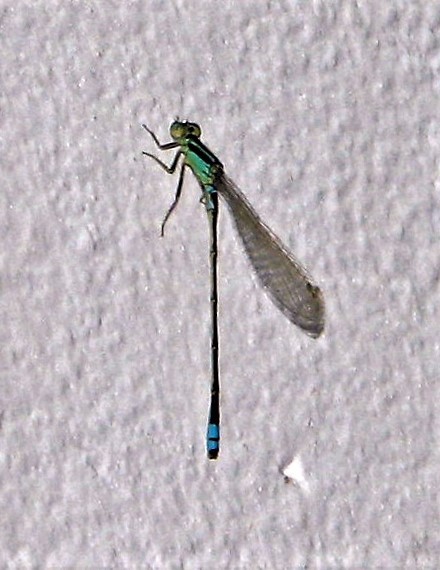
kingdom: Animalia
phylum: Arthropoda
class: Insecta
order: Odonata
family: Coenagrionidae
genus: Ischnura
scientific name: Ischnura fluviatilis
